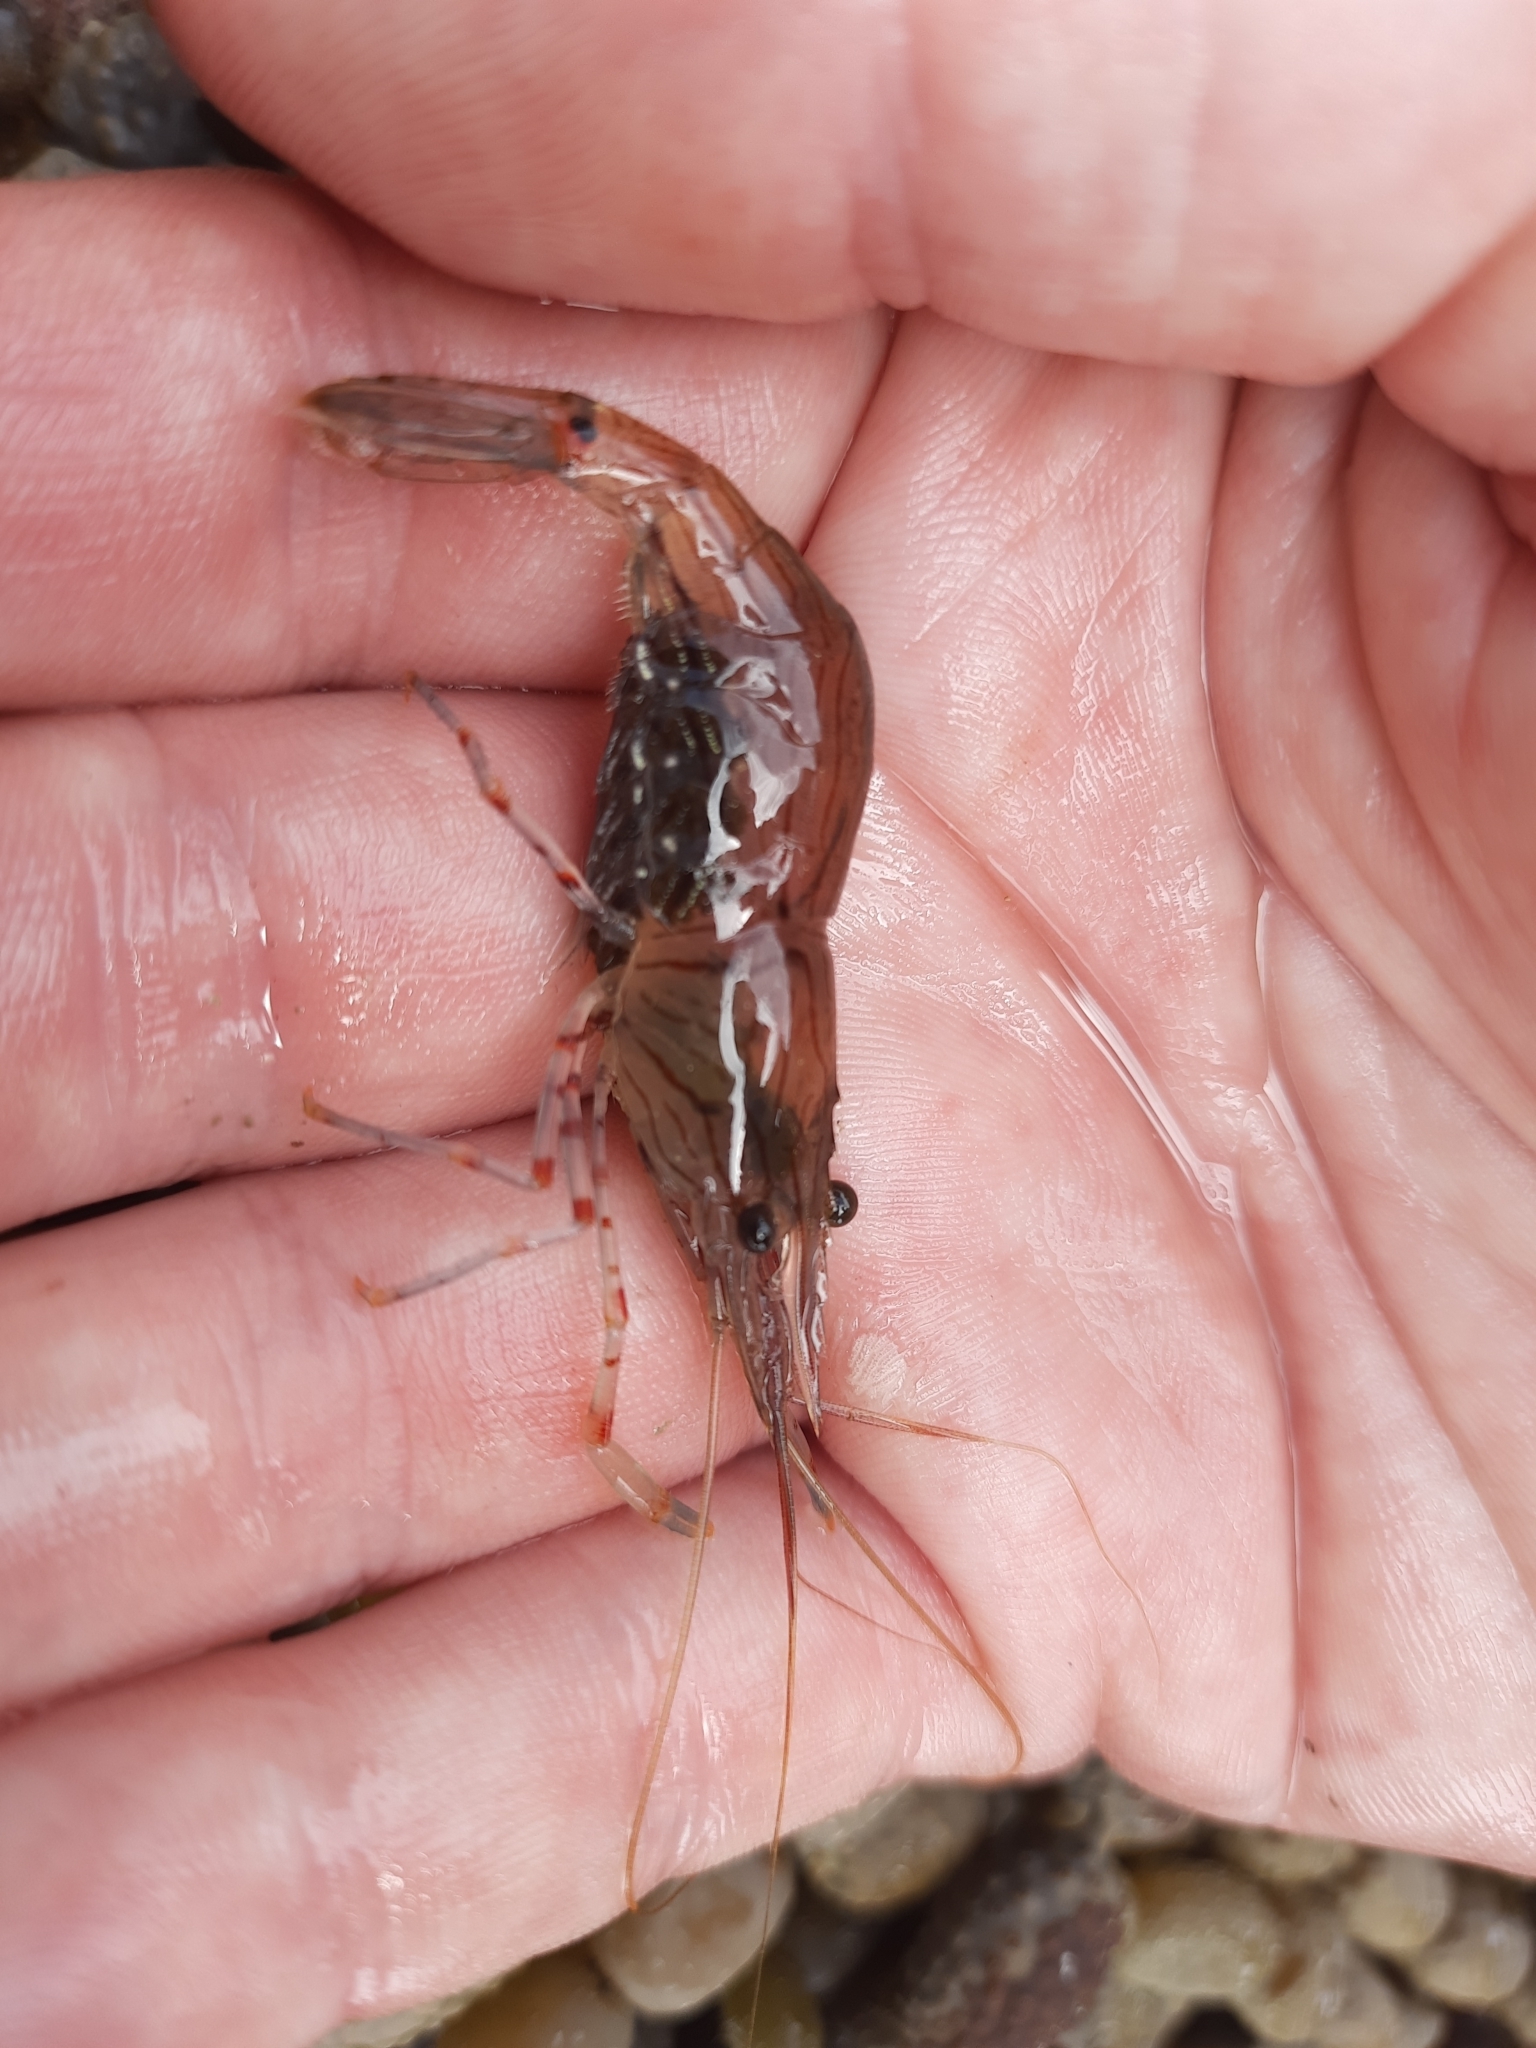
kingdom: Animalia
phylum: Arthropoda
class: Malacostraca
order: Decapoda
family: Palaemonidae
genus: Palaemon
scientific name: Palaemon affinis
